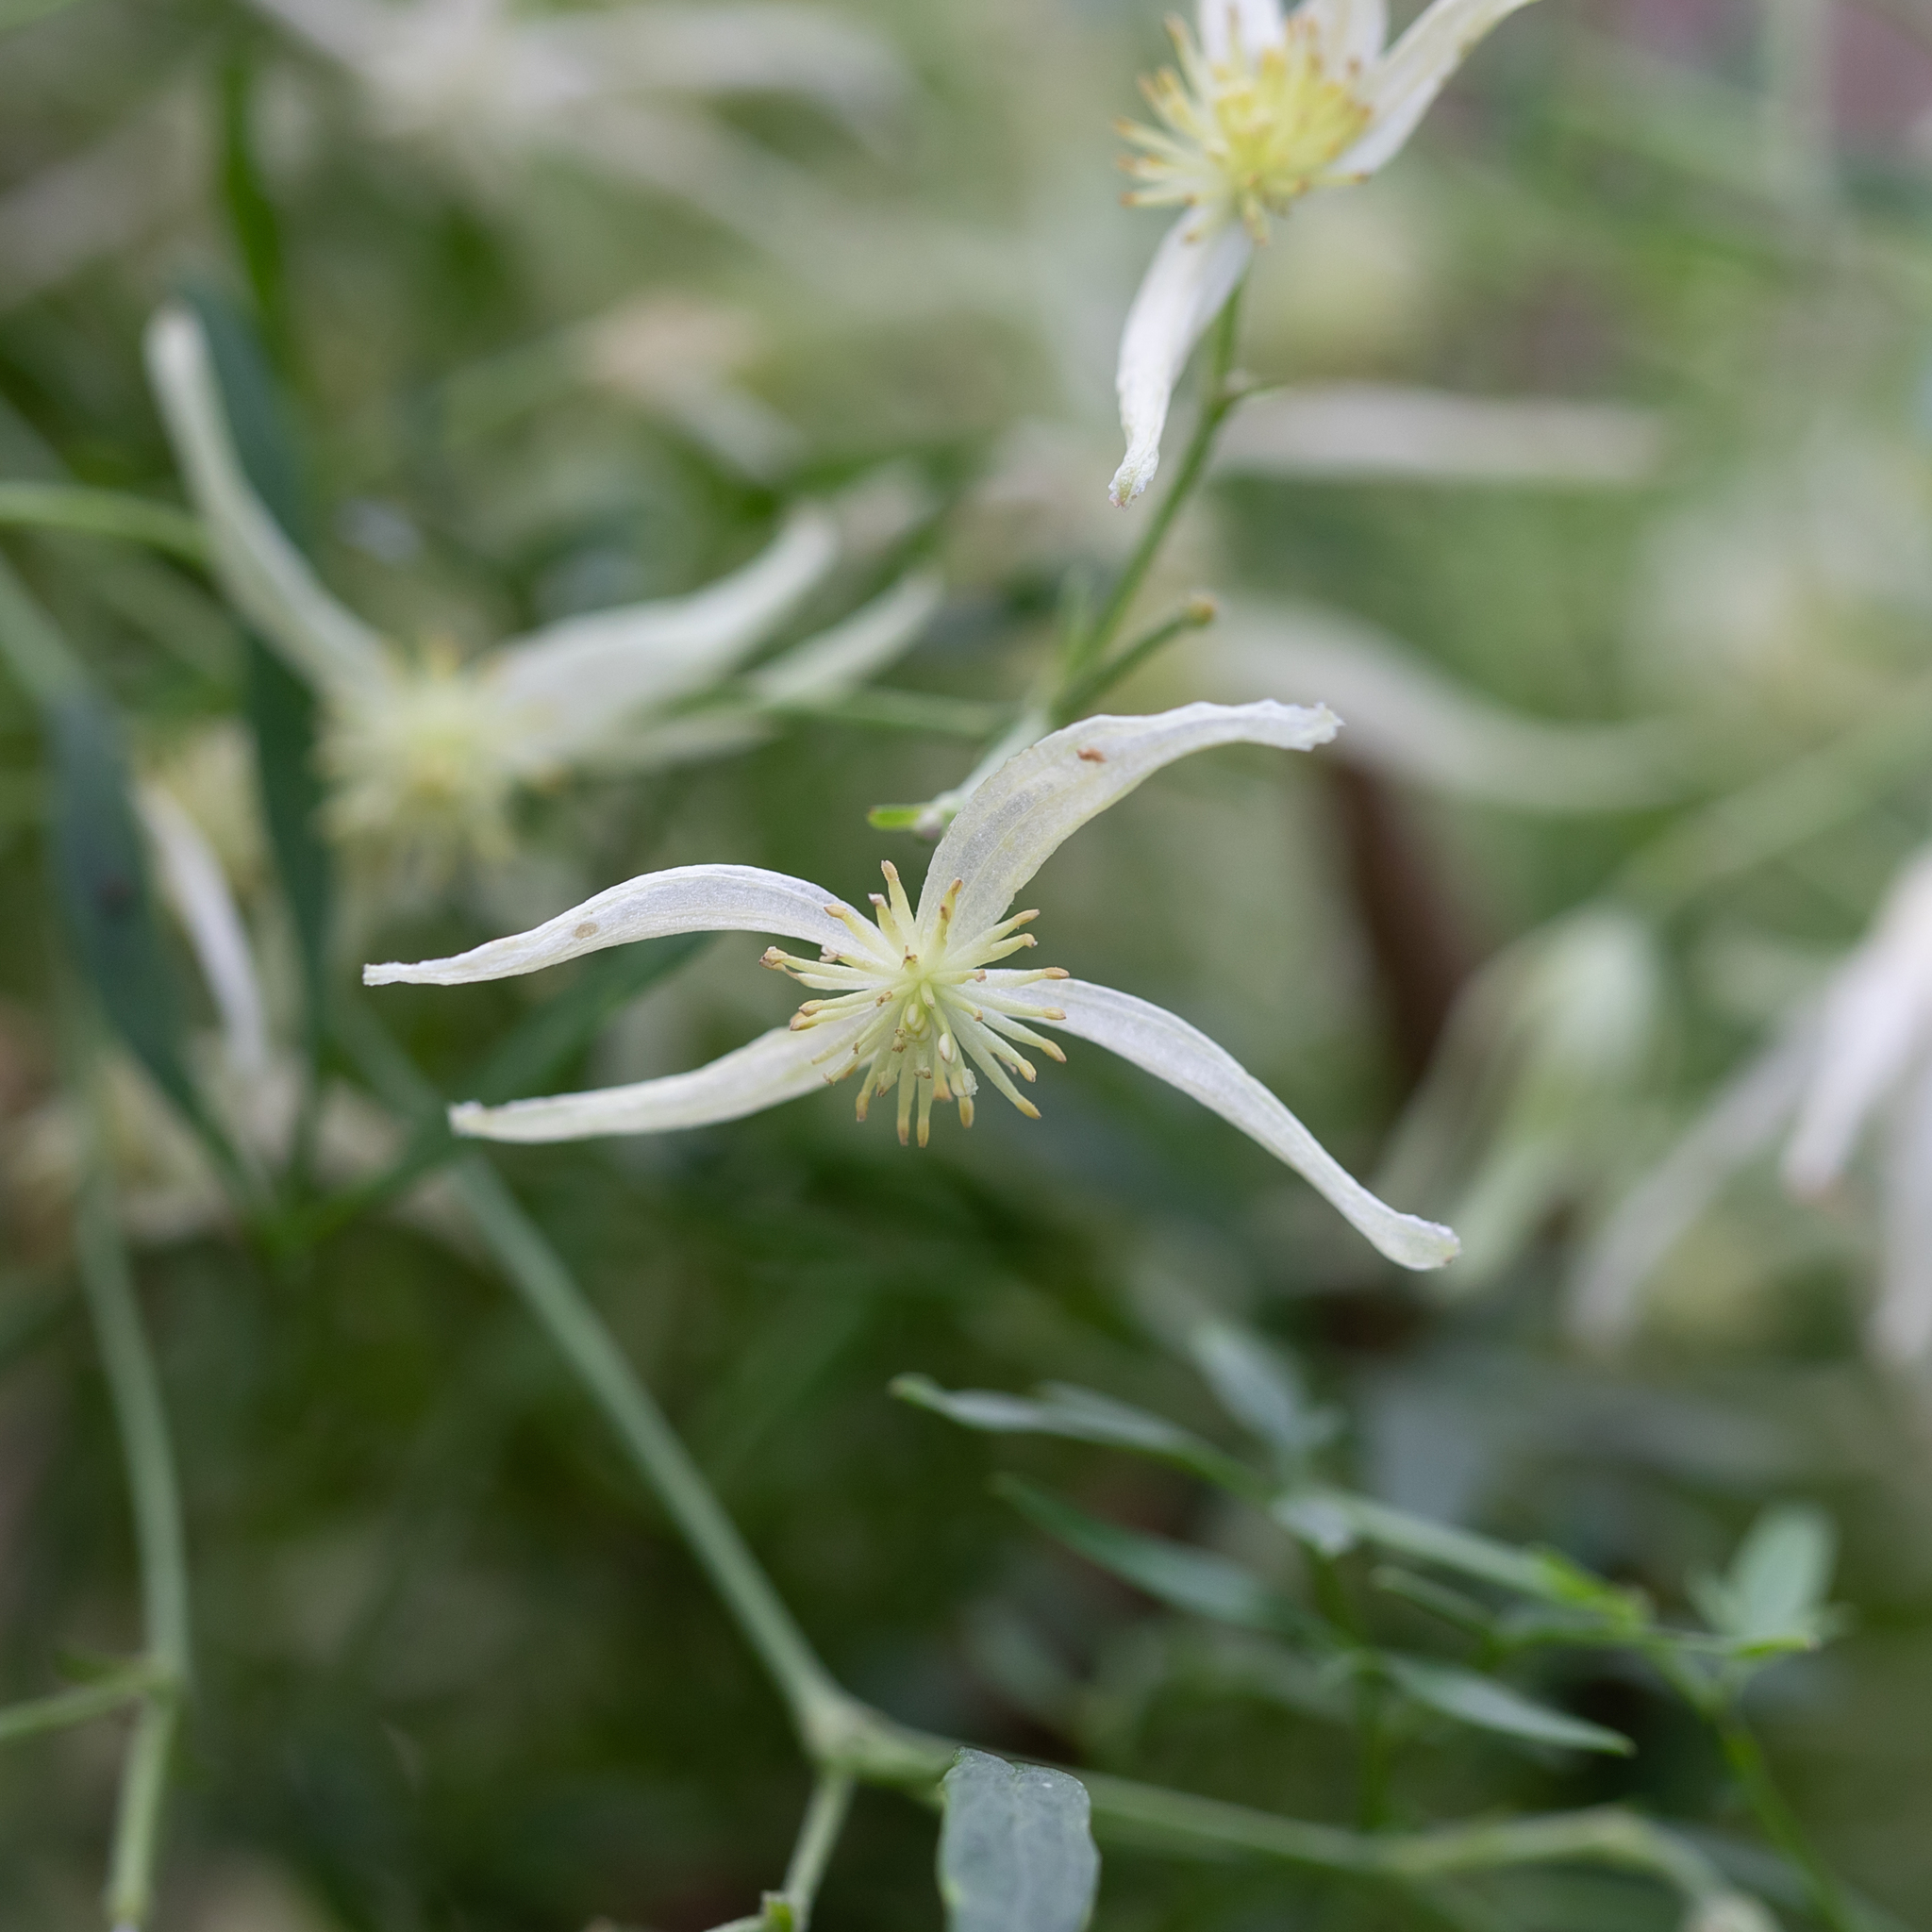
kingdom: Plantae
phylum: Tracheophyta
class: Magnoliopsida
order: Ranunculales
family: Ranunculaceae
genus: Clematis
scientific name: Clematis microphylla
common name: Headachevine
